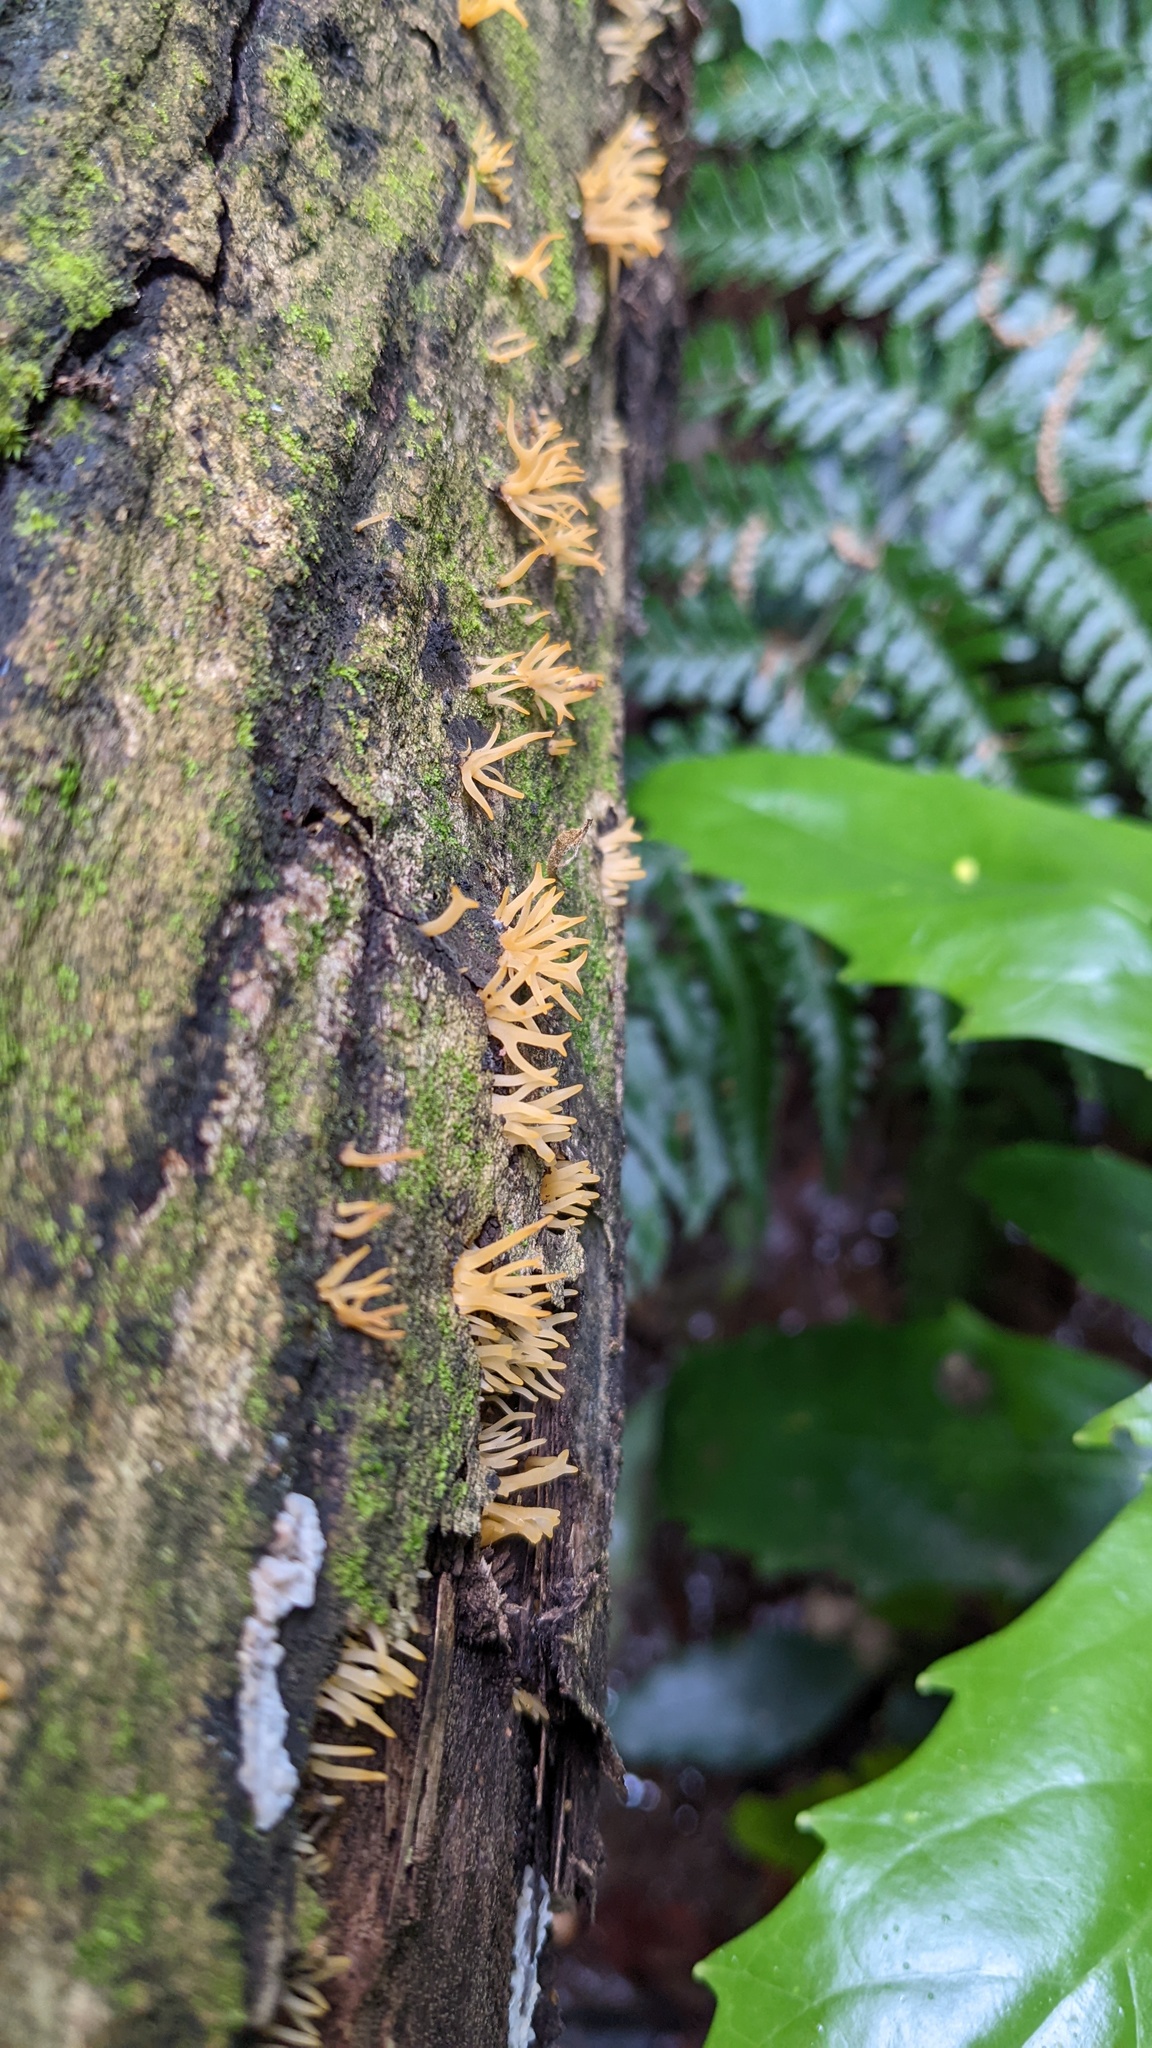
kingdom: Fungi
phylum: Basidiomycota
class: Dacrymycetes
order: Dacrymycetales
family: Dacrymycetaceae
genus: Calocera
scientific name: Calocera cornea
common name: Small stagshorn
